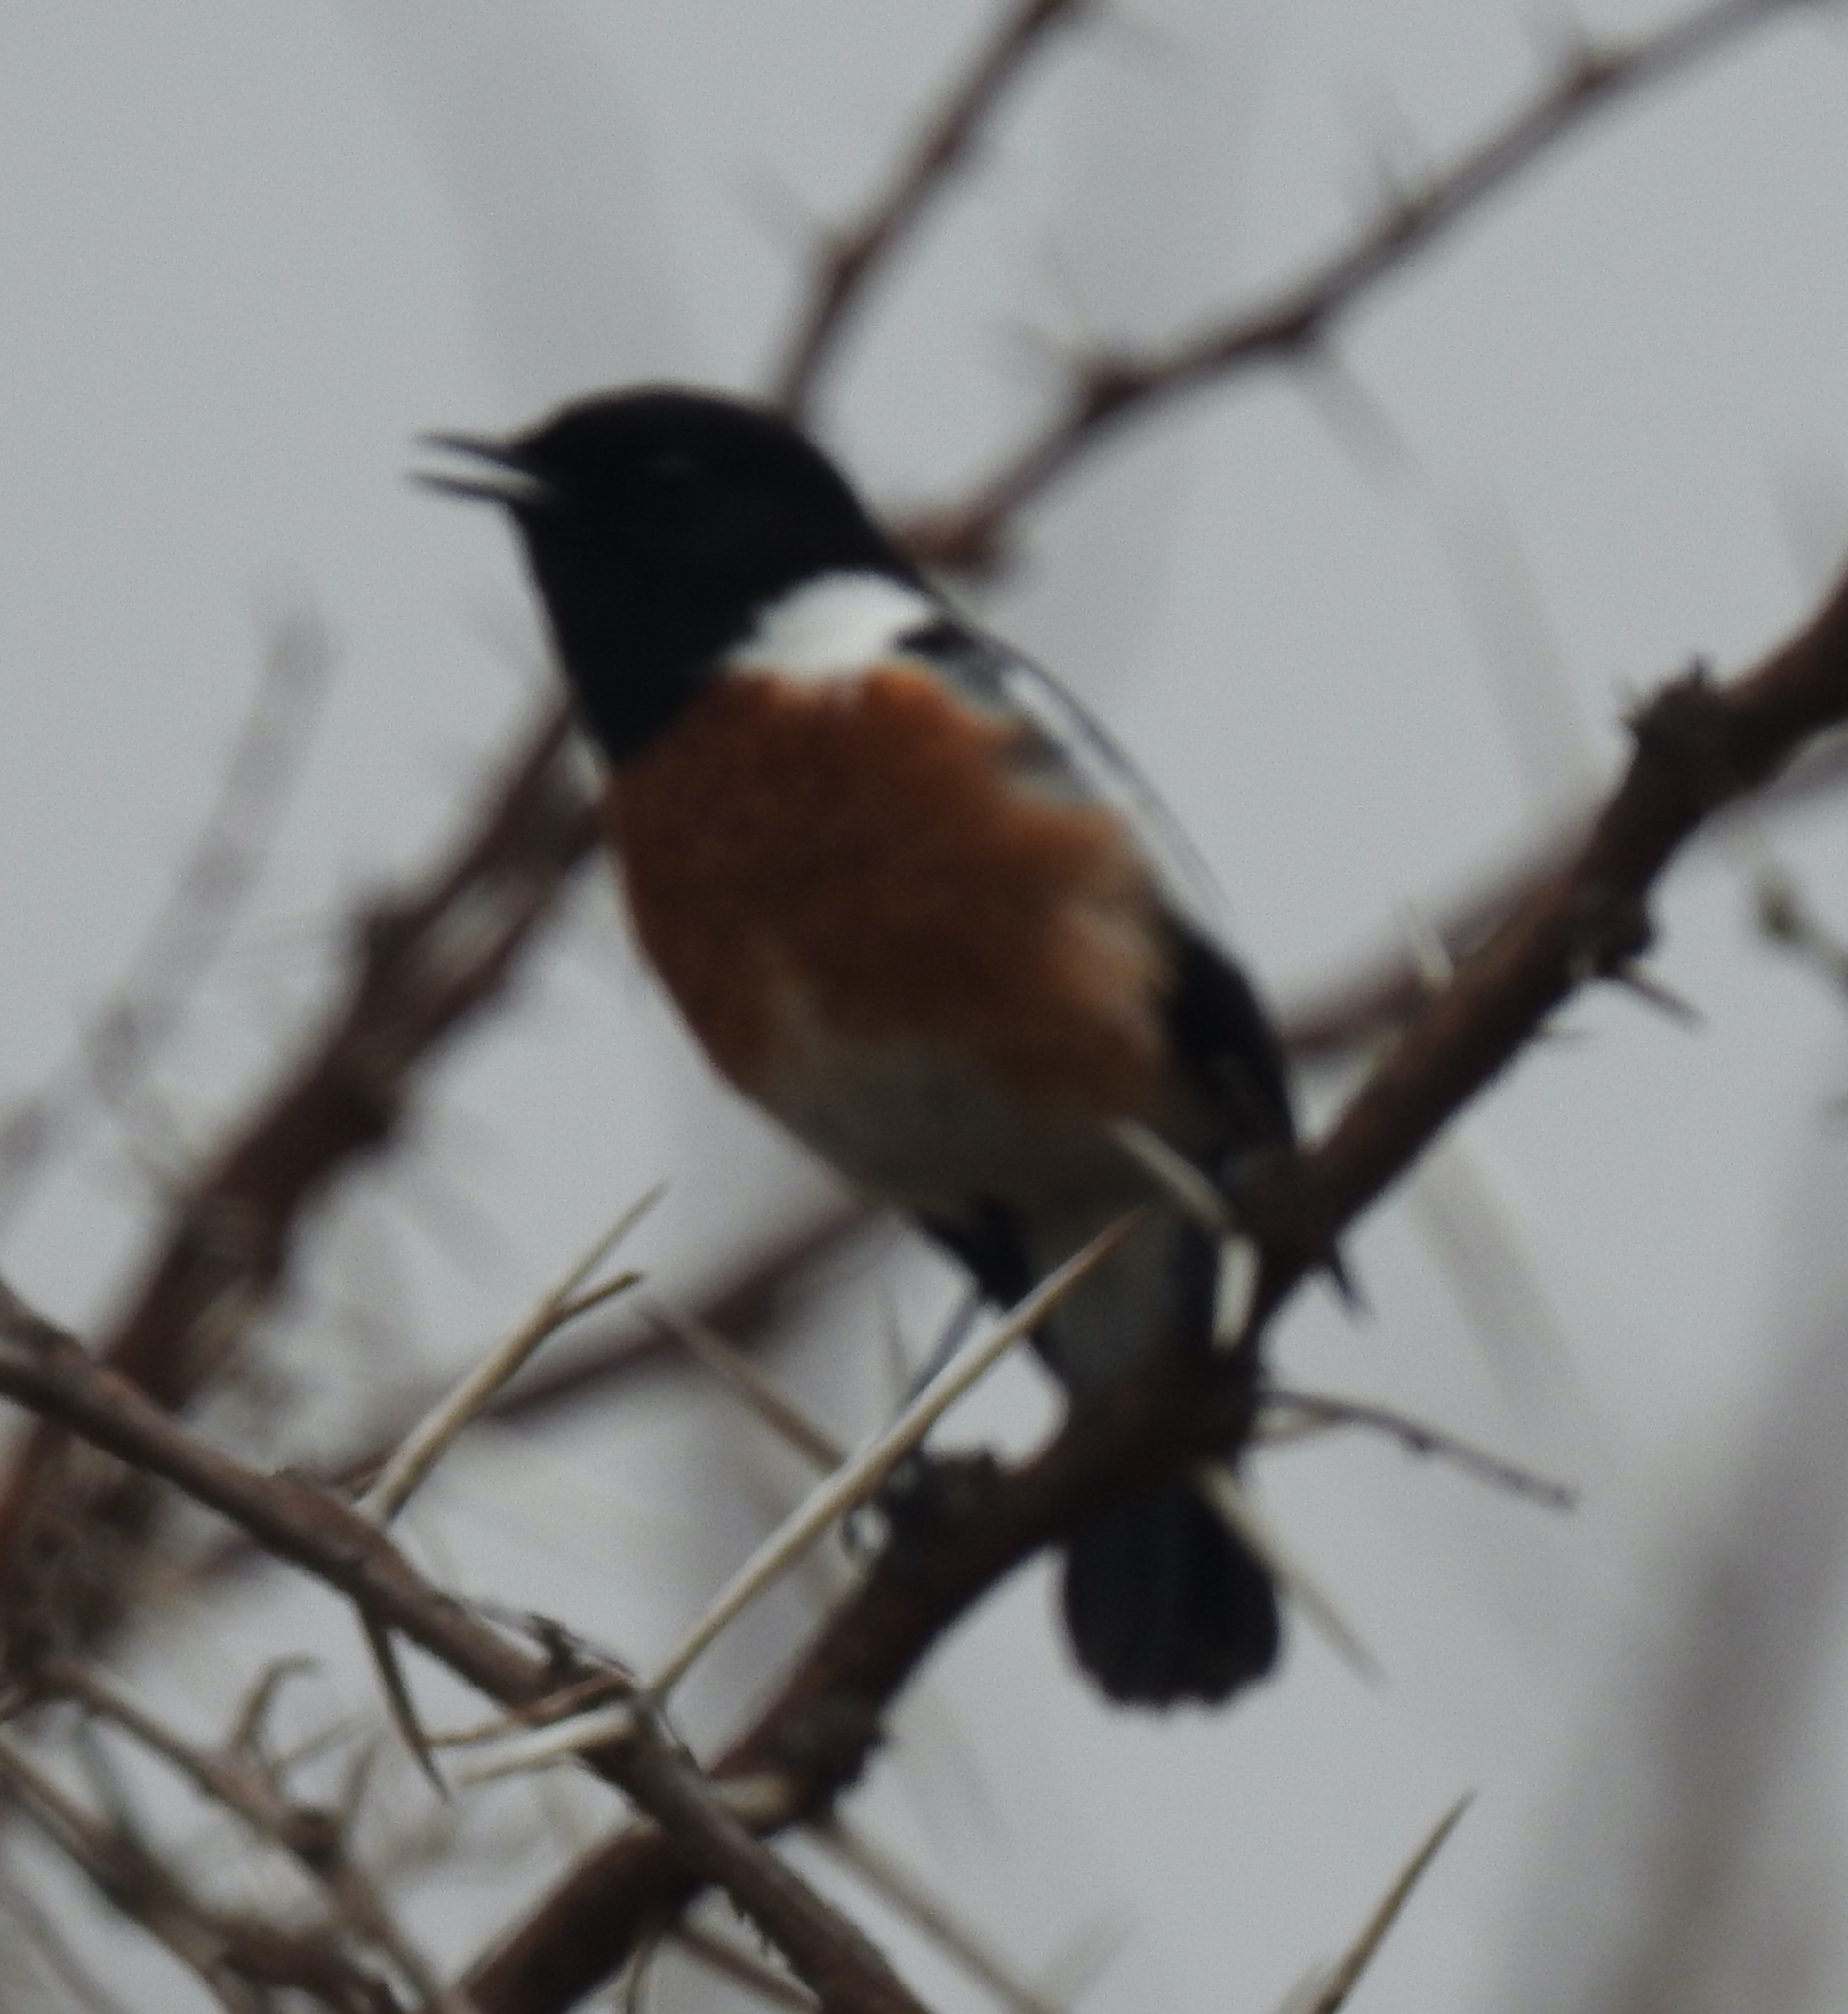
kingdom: Animalia
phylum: Chordata
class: Aves
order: Passeriformes
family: Muscicapidae
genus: Saxicola
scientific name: Saxicola torquatus
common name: African stonechat
